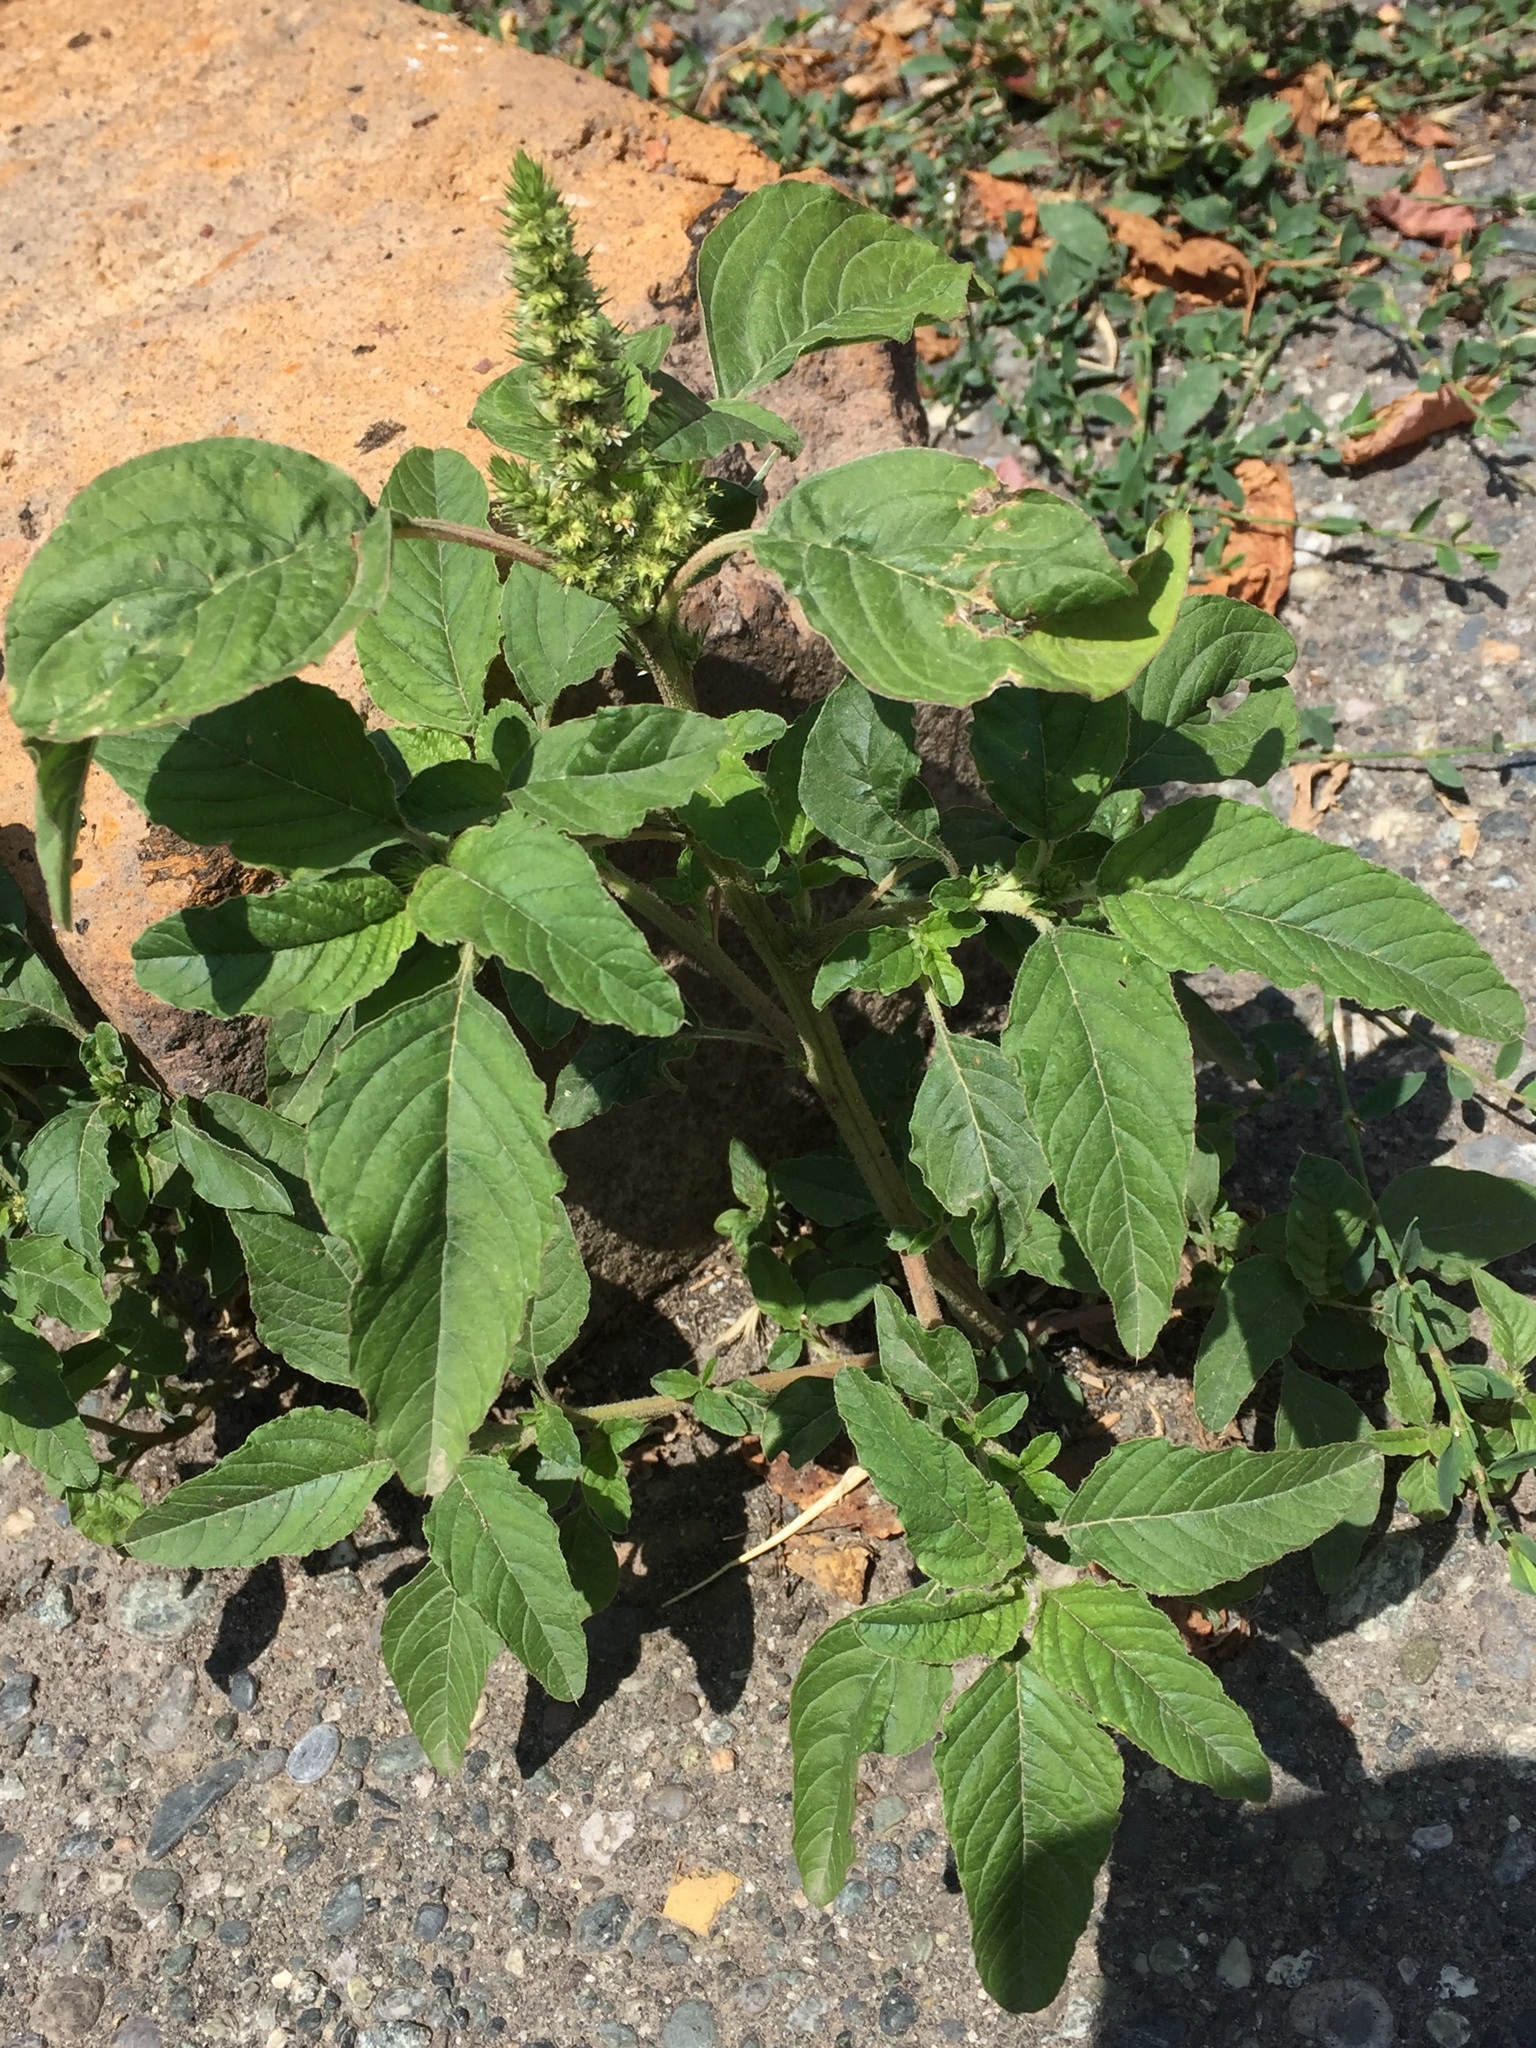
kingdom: Plantae
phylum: Tracheophyta
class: Magnoliopsida
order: Caryophyllales
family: Amaranthaceae
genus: Amaranthus
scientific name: Amaranthus retroflexus
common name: Redroot amaranth
